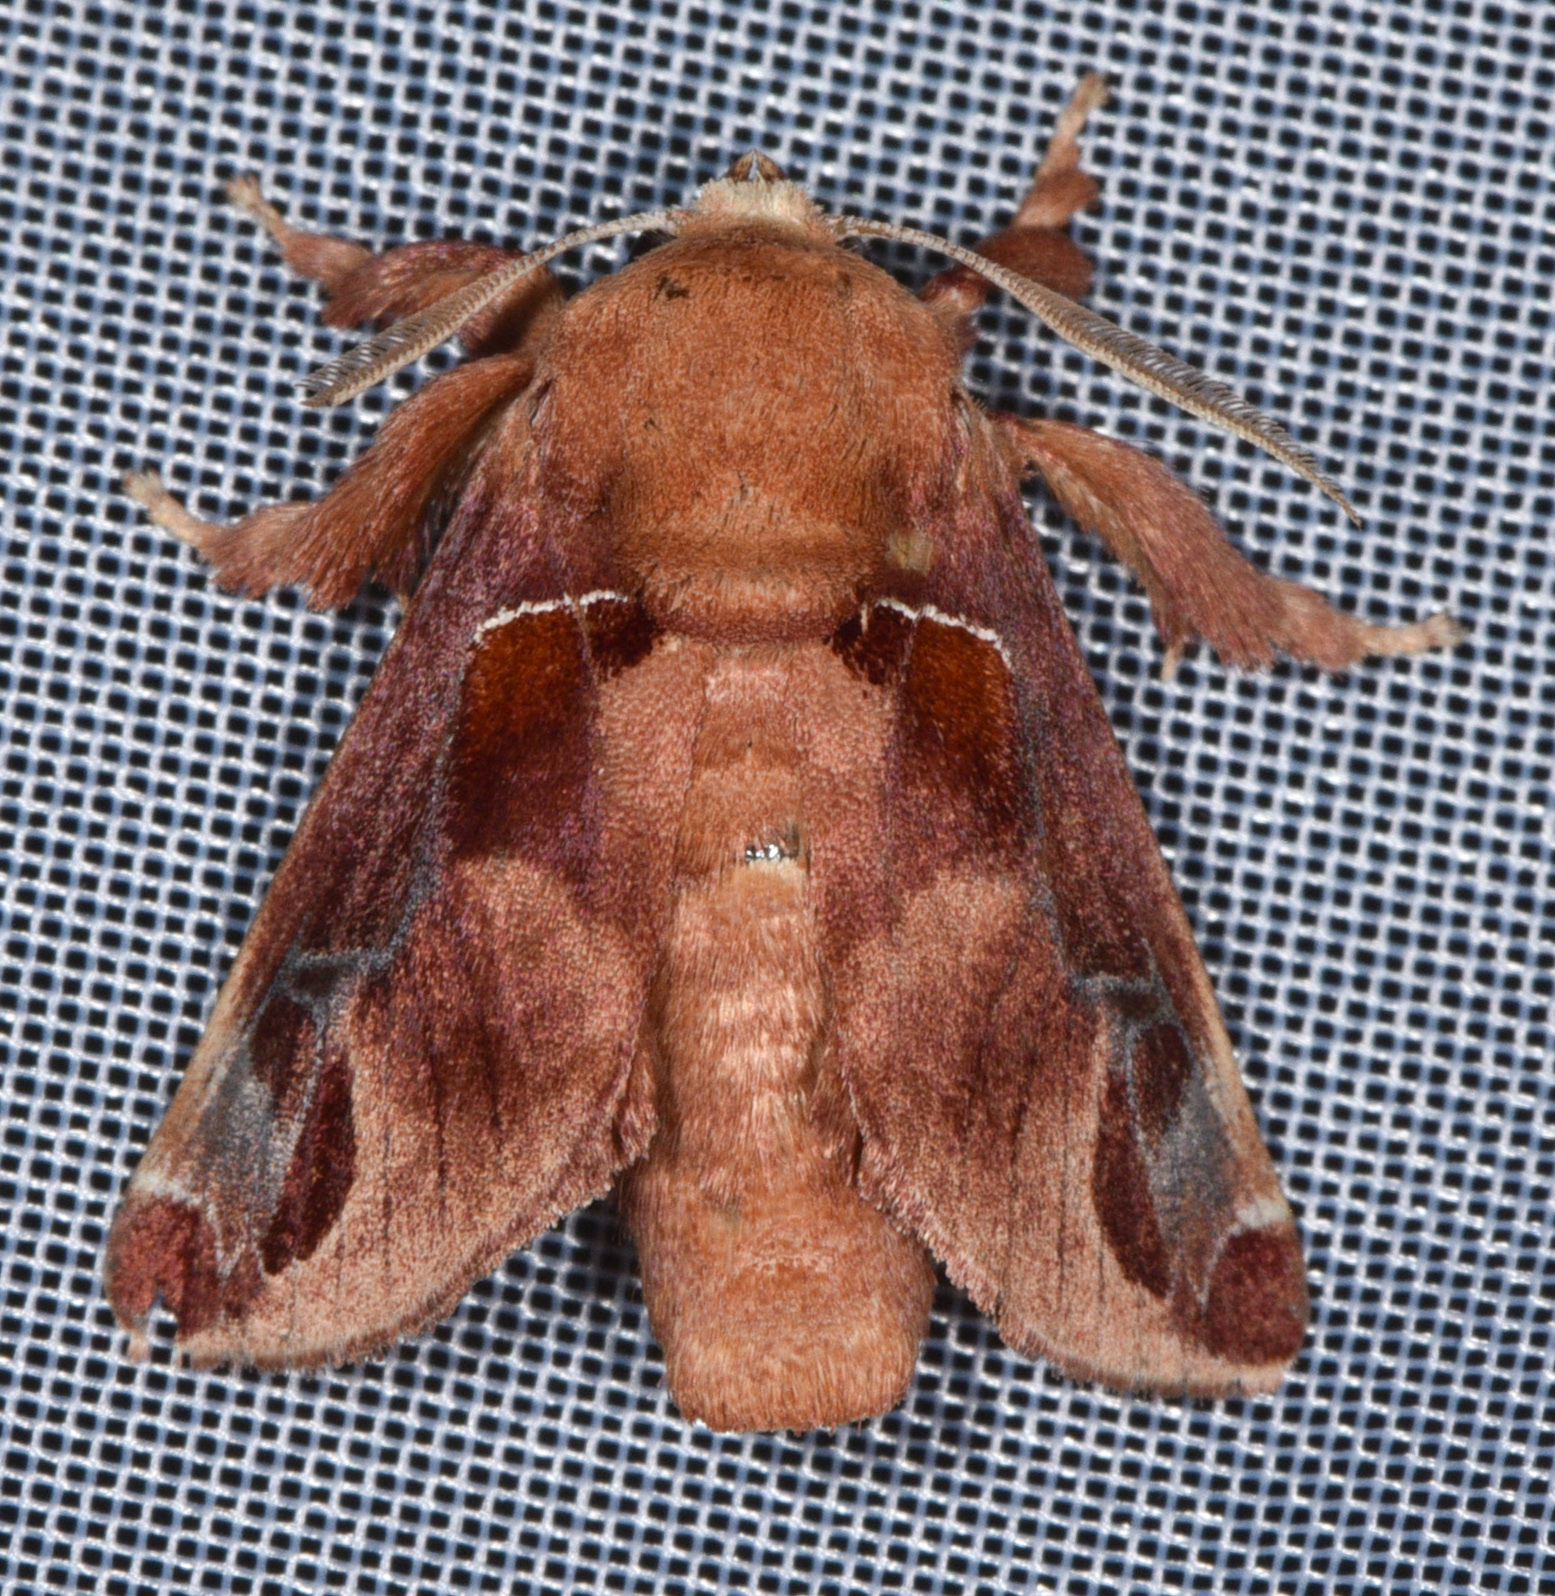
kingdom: Animalia
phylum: Arthropoda
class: Insecta
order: Lepidoptera
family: Limacodidae
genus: Semyra
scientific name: Semyra bella
